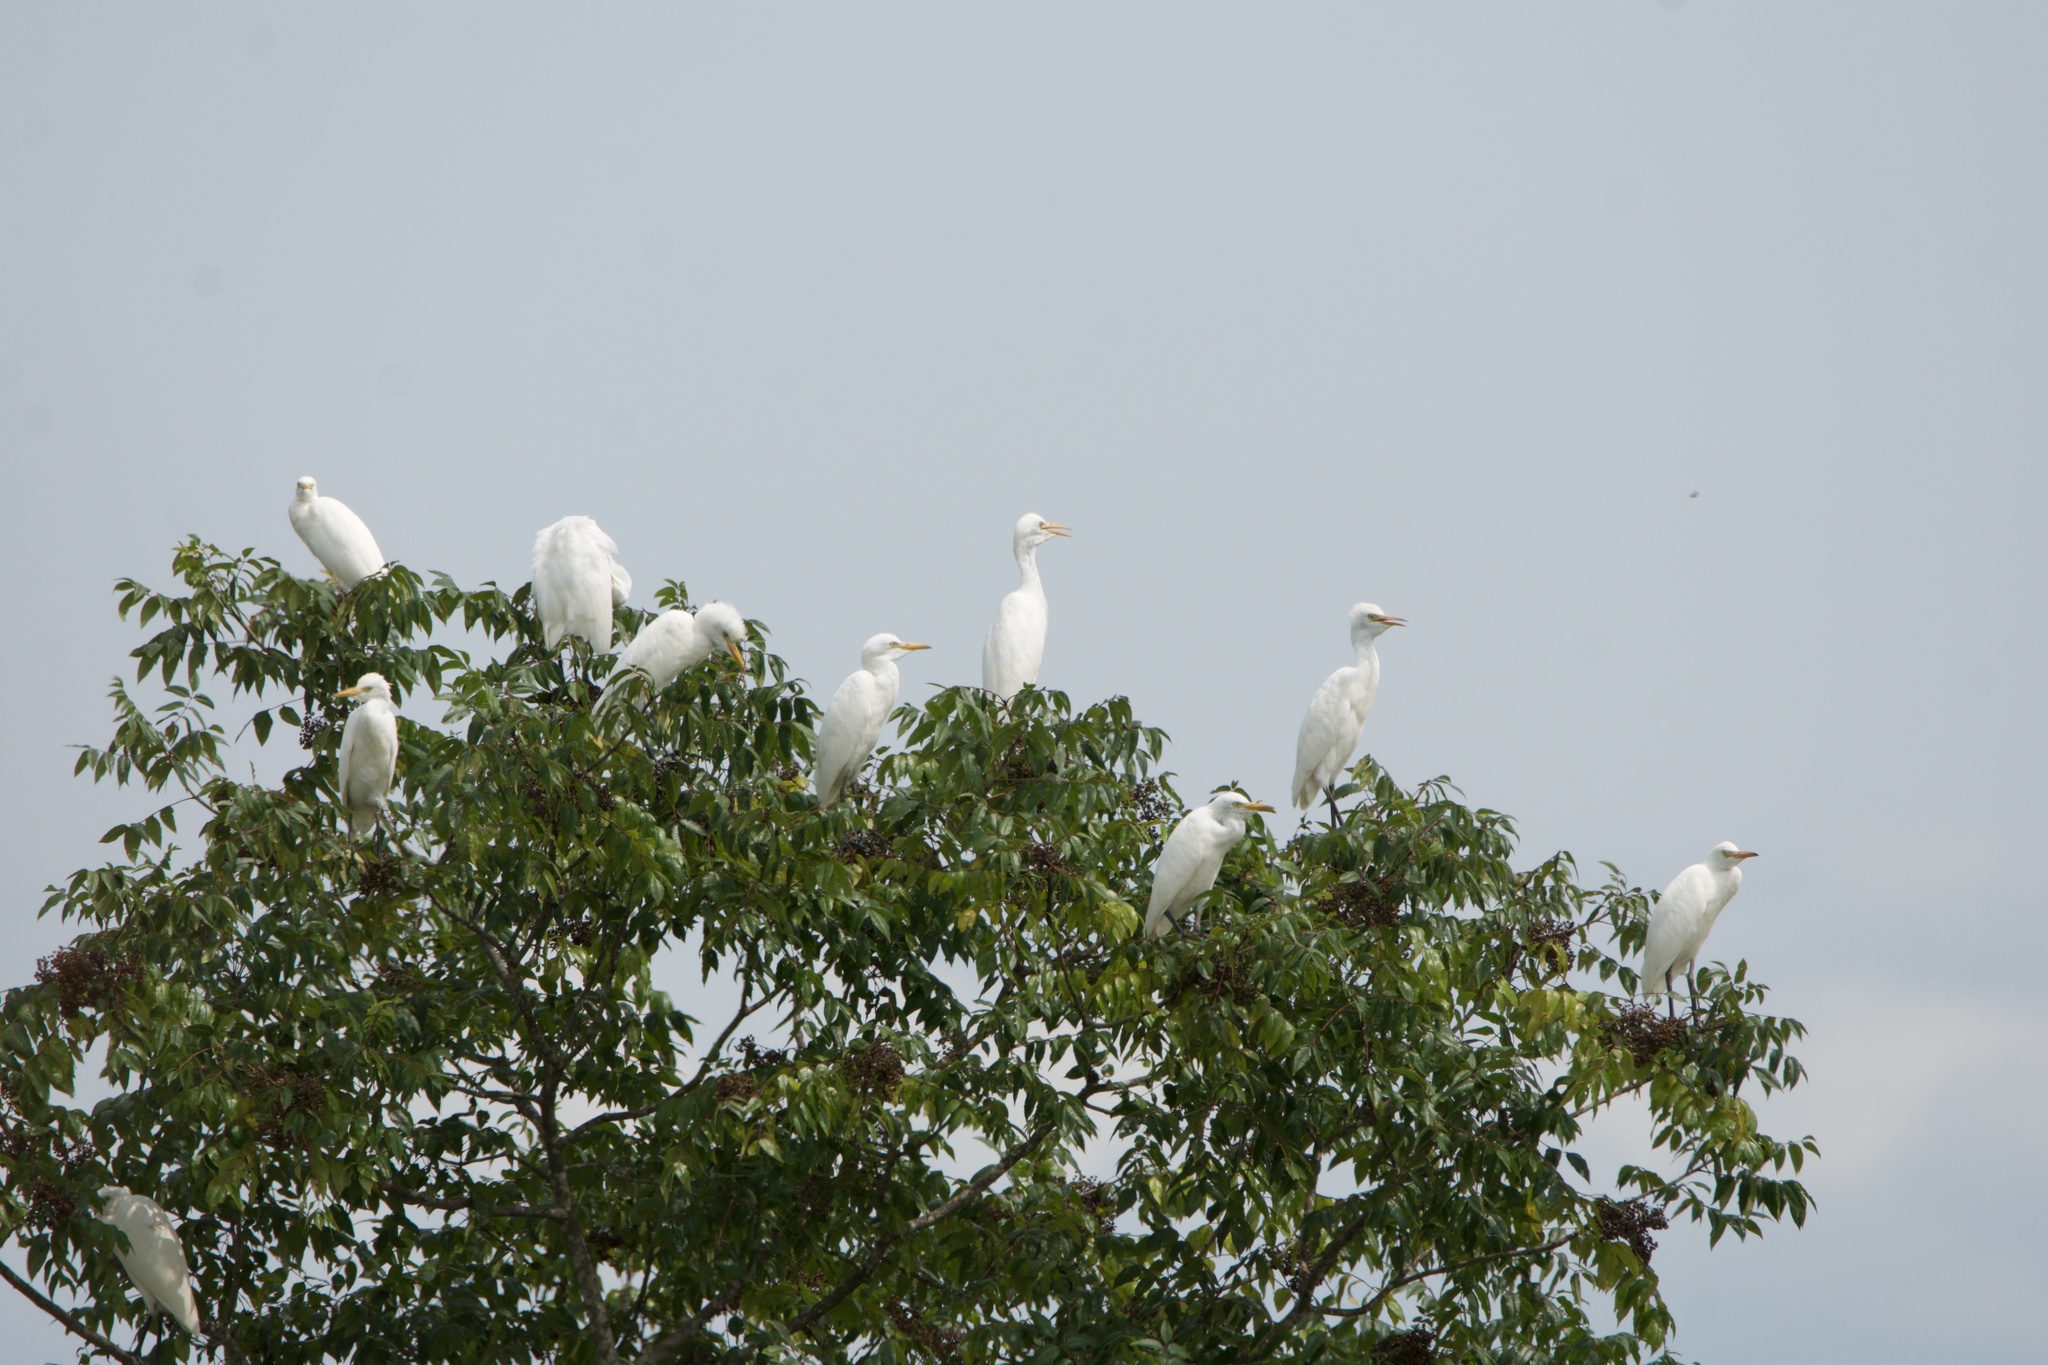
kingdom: Animalia
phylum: Chordata
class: Aves
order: Pelecaniformes
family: Ardeidae
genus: Bubulcus
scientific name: Bubulcus ibis
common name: Cattle egret
